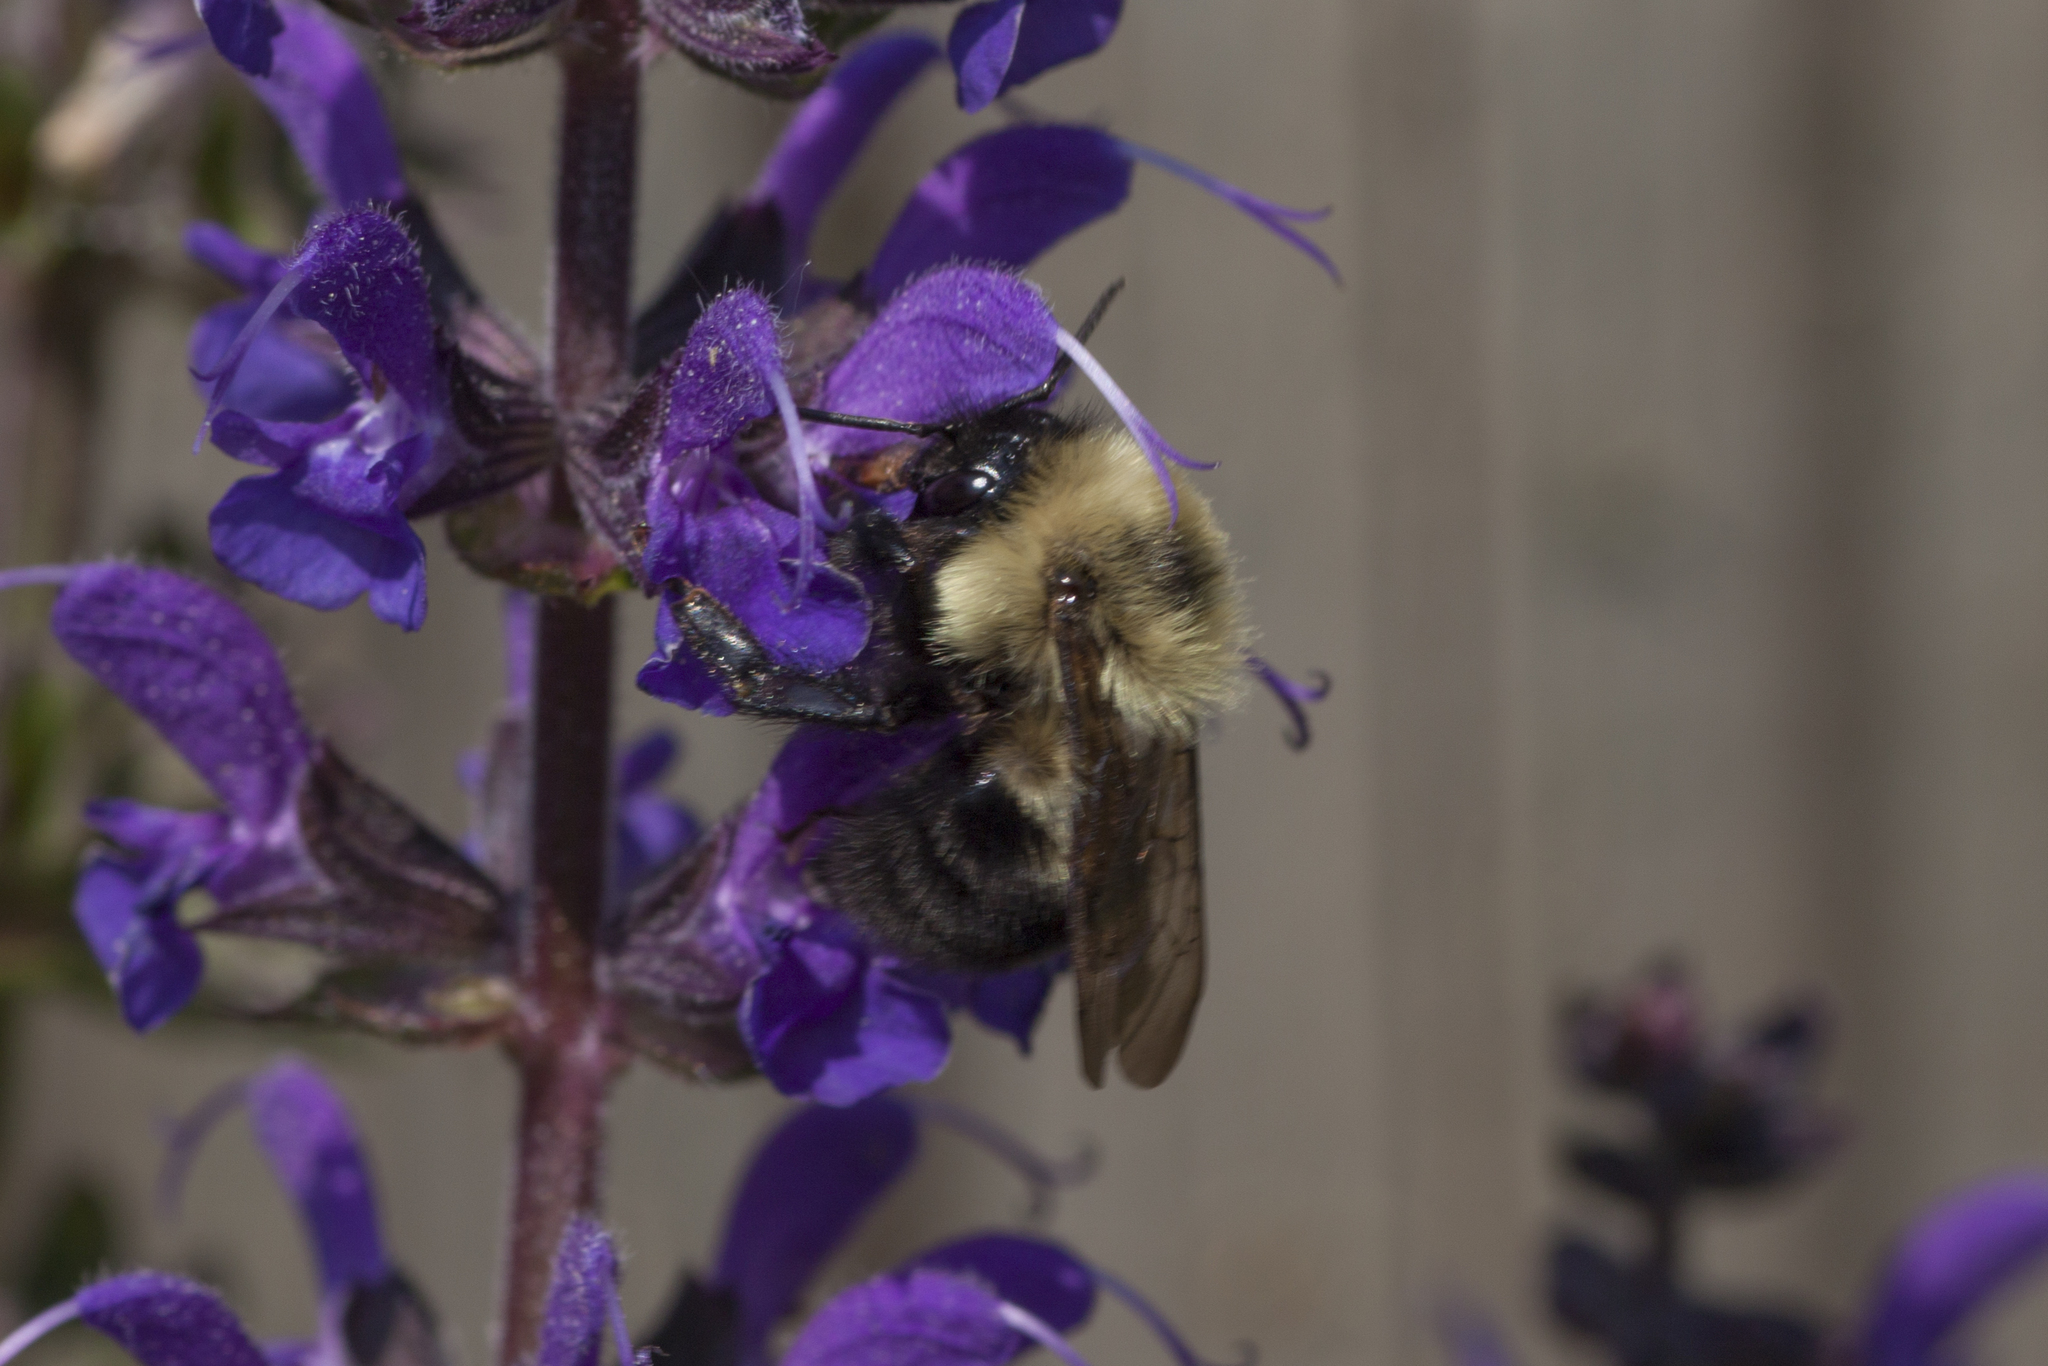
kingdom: Animalia
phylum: Arthropoda
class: Insecta
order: Hymenoptera
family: Apidae
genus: Bombus
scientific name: Bombus bimaculatus
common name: Two-spotted bumble bee
